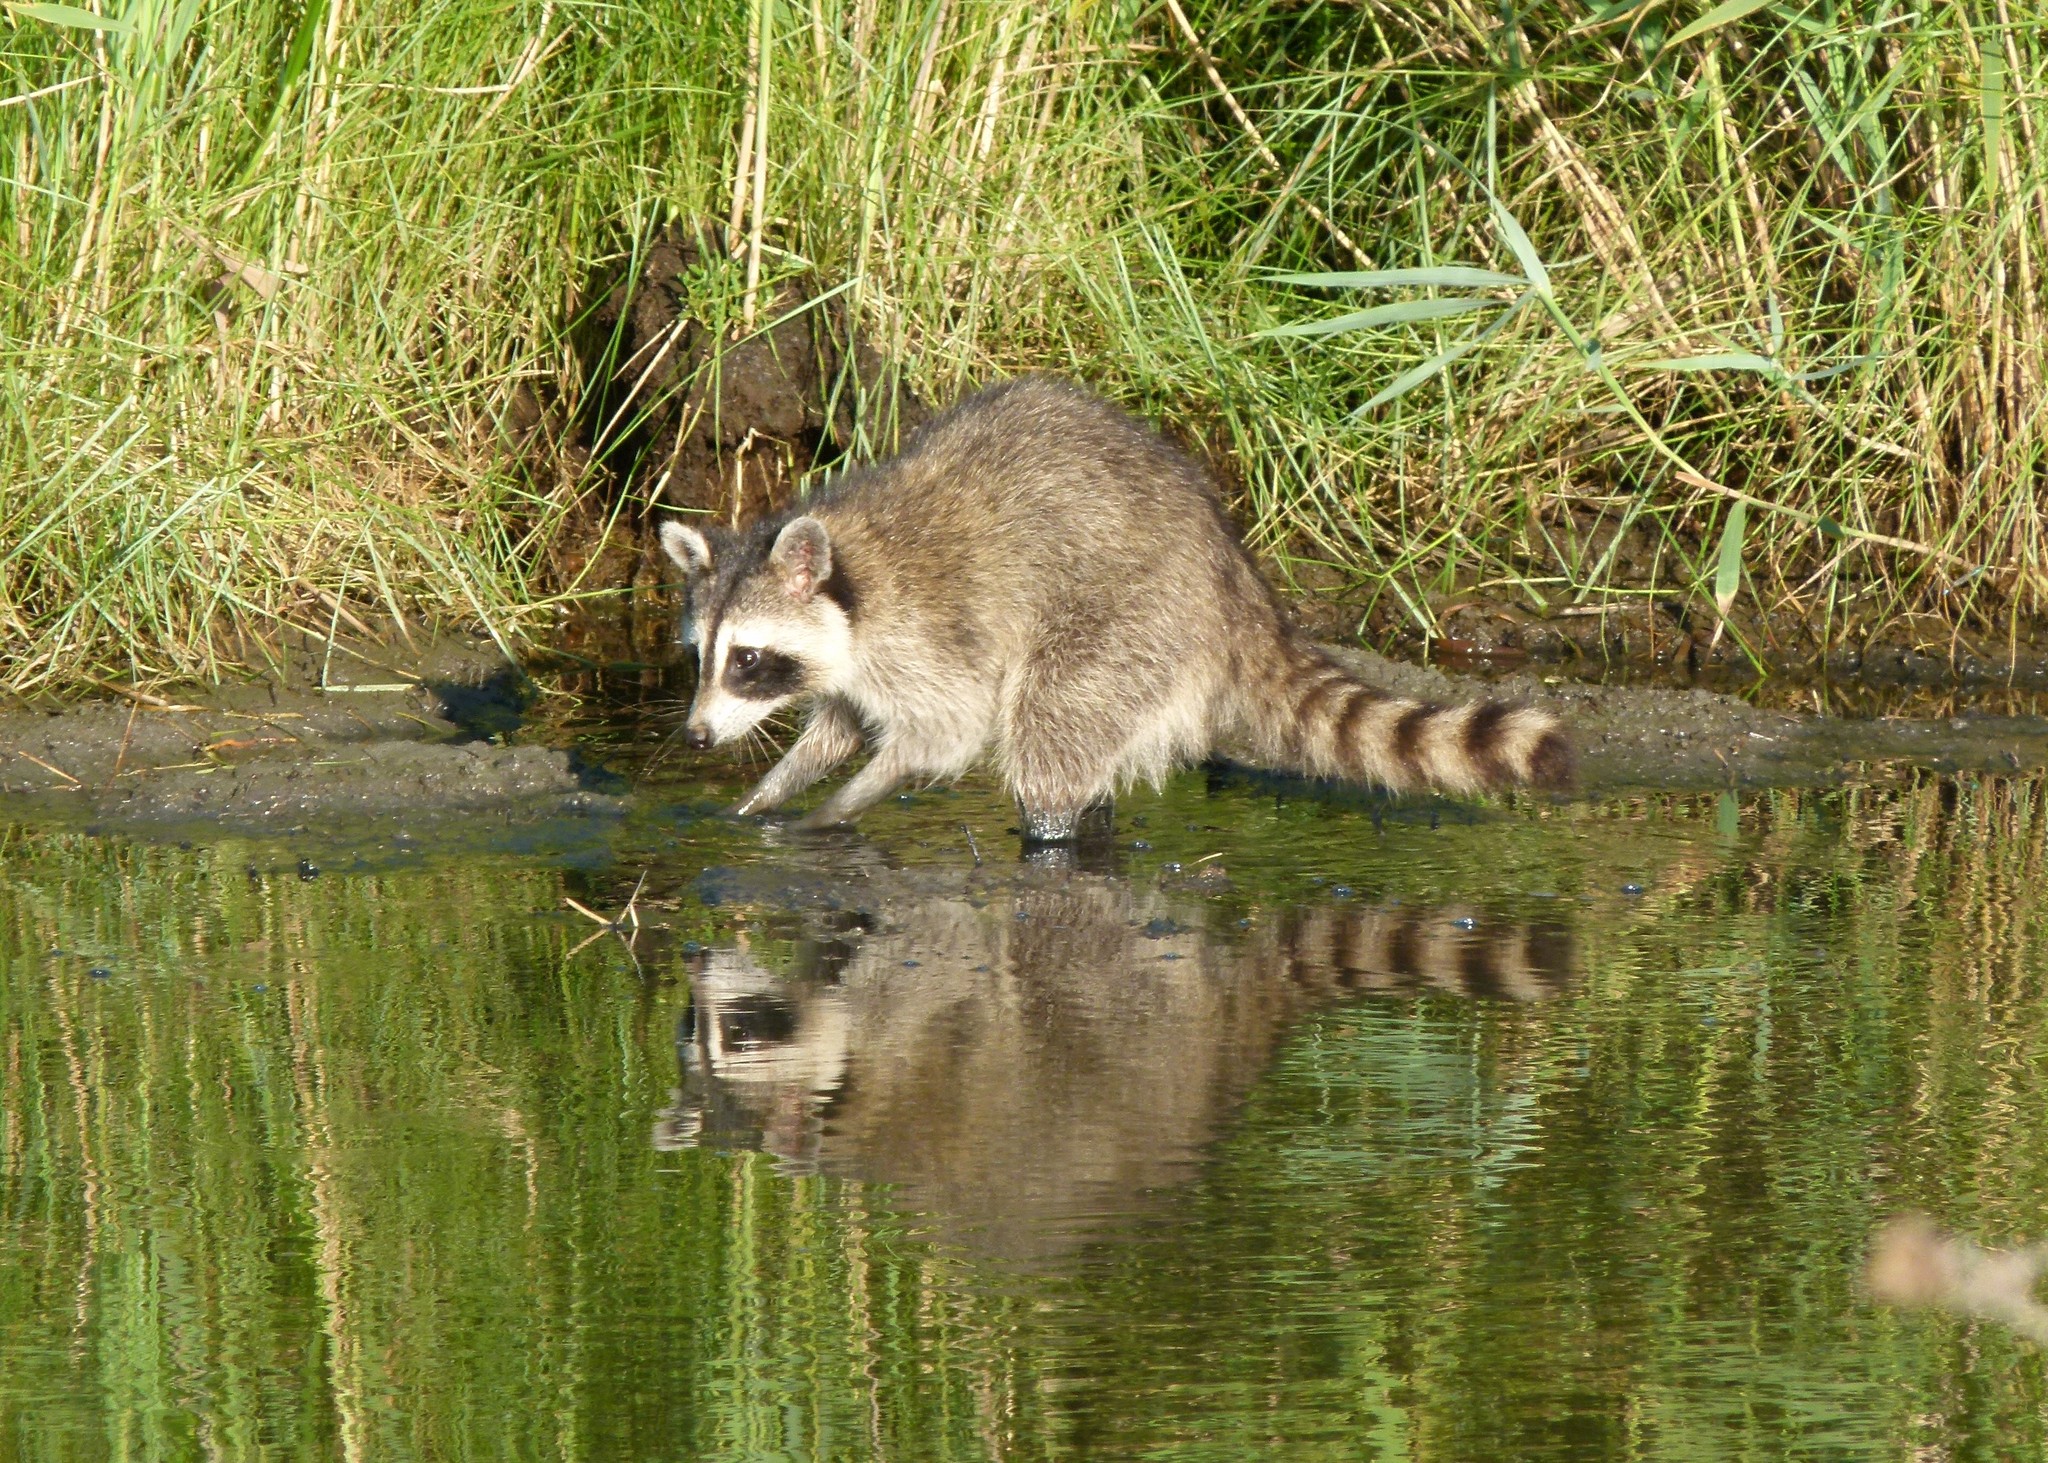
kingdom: Animalia
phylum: Chordata
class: Mammalia
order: Carnivora
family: Procyonidae
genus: Procyon
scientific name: Procyon lotor
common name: Raccoon
